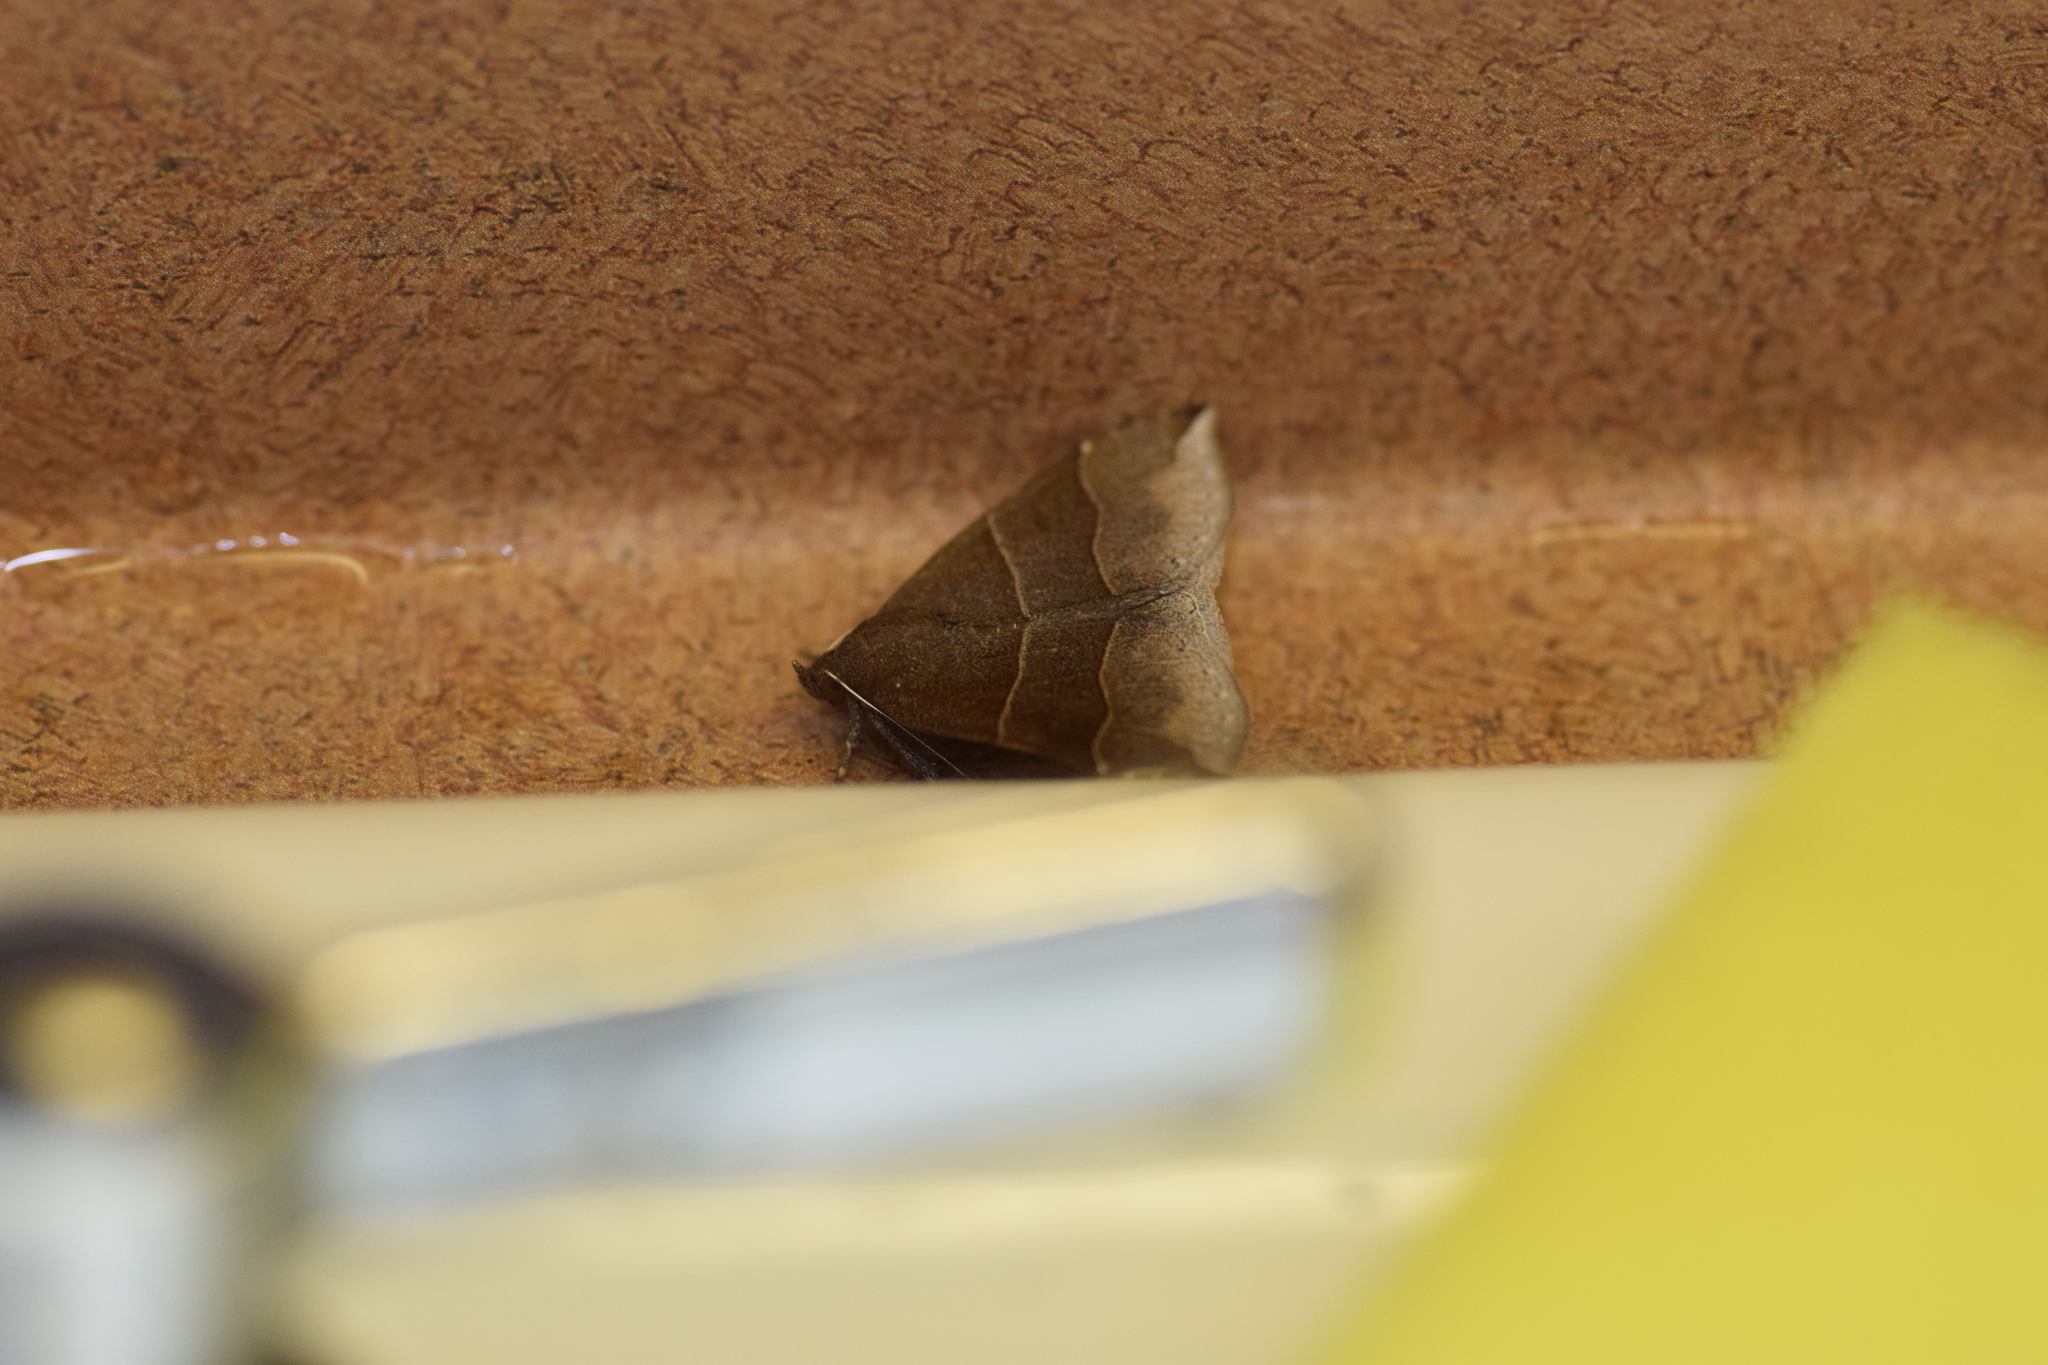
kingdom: Animalia
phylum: Arthropoda
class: Insecta
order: Lepidoptera
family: Erebidae
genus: Parallelia
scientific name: Parallelia bistriaris
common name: Maple looper moth
